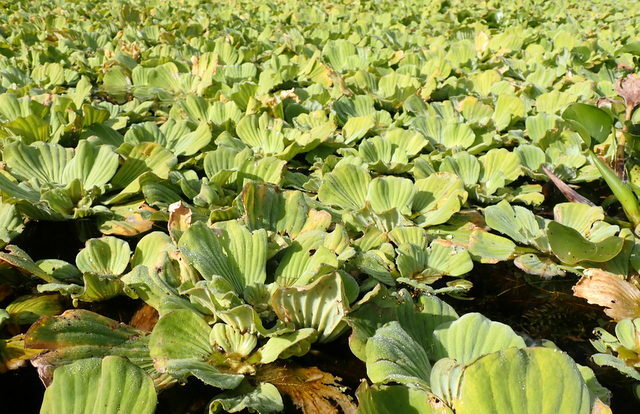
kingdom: Plantae
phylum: Tracheophyta
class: Liliopsida
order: Alismatales
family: Araceae
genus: Pistia
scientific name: Pistia stratiotes
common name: Water lettuce
